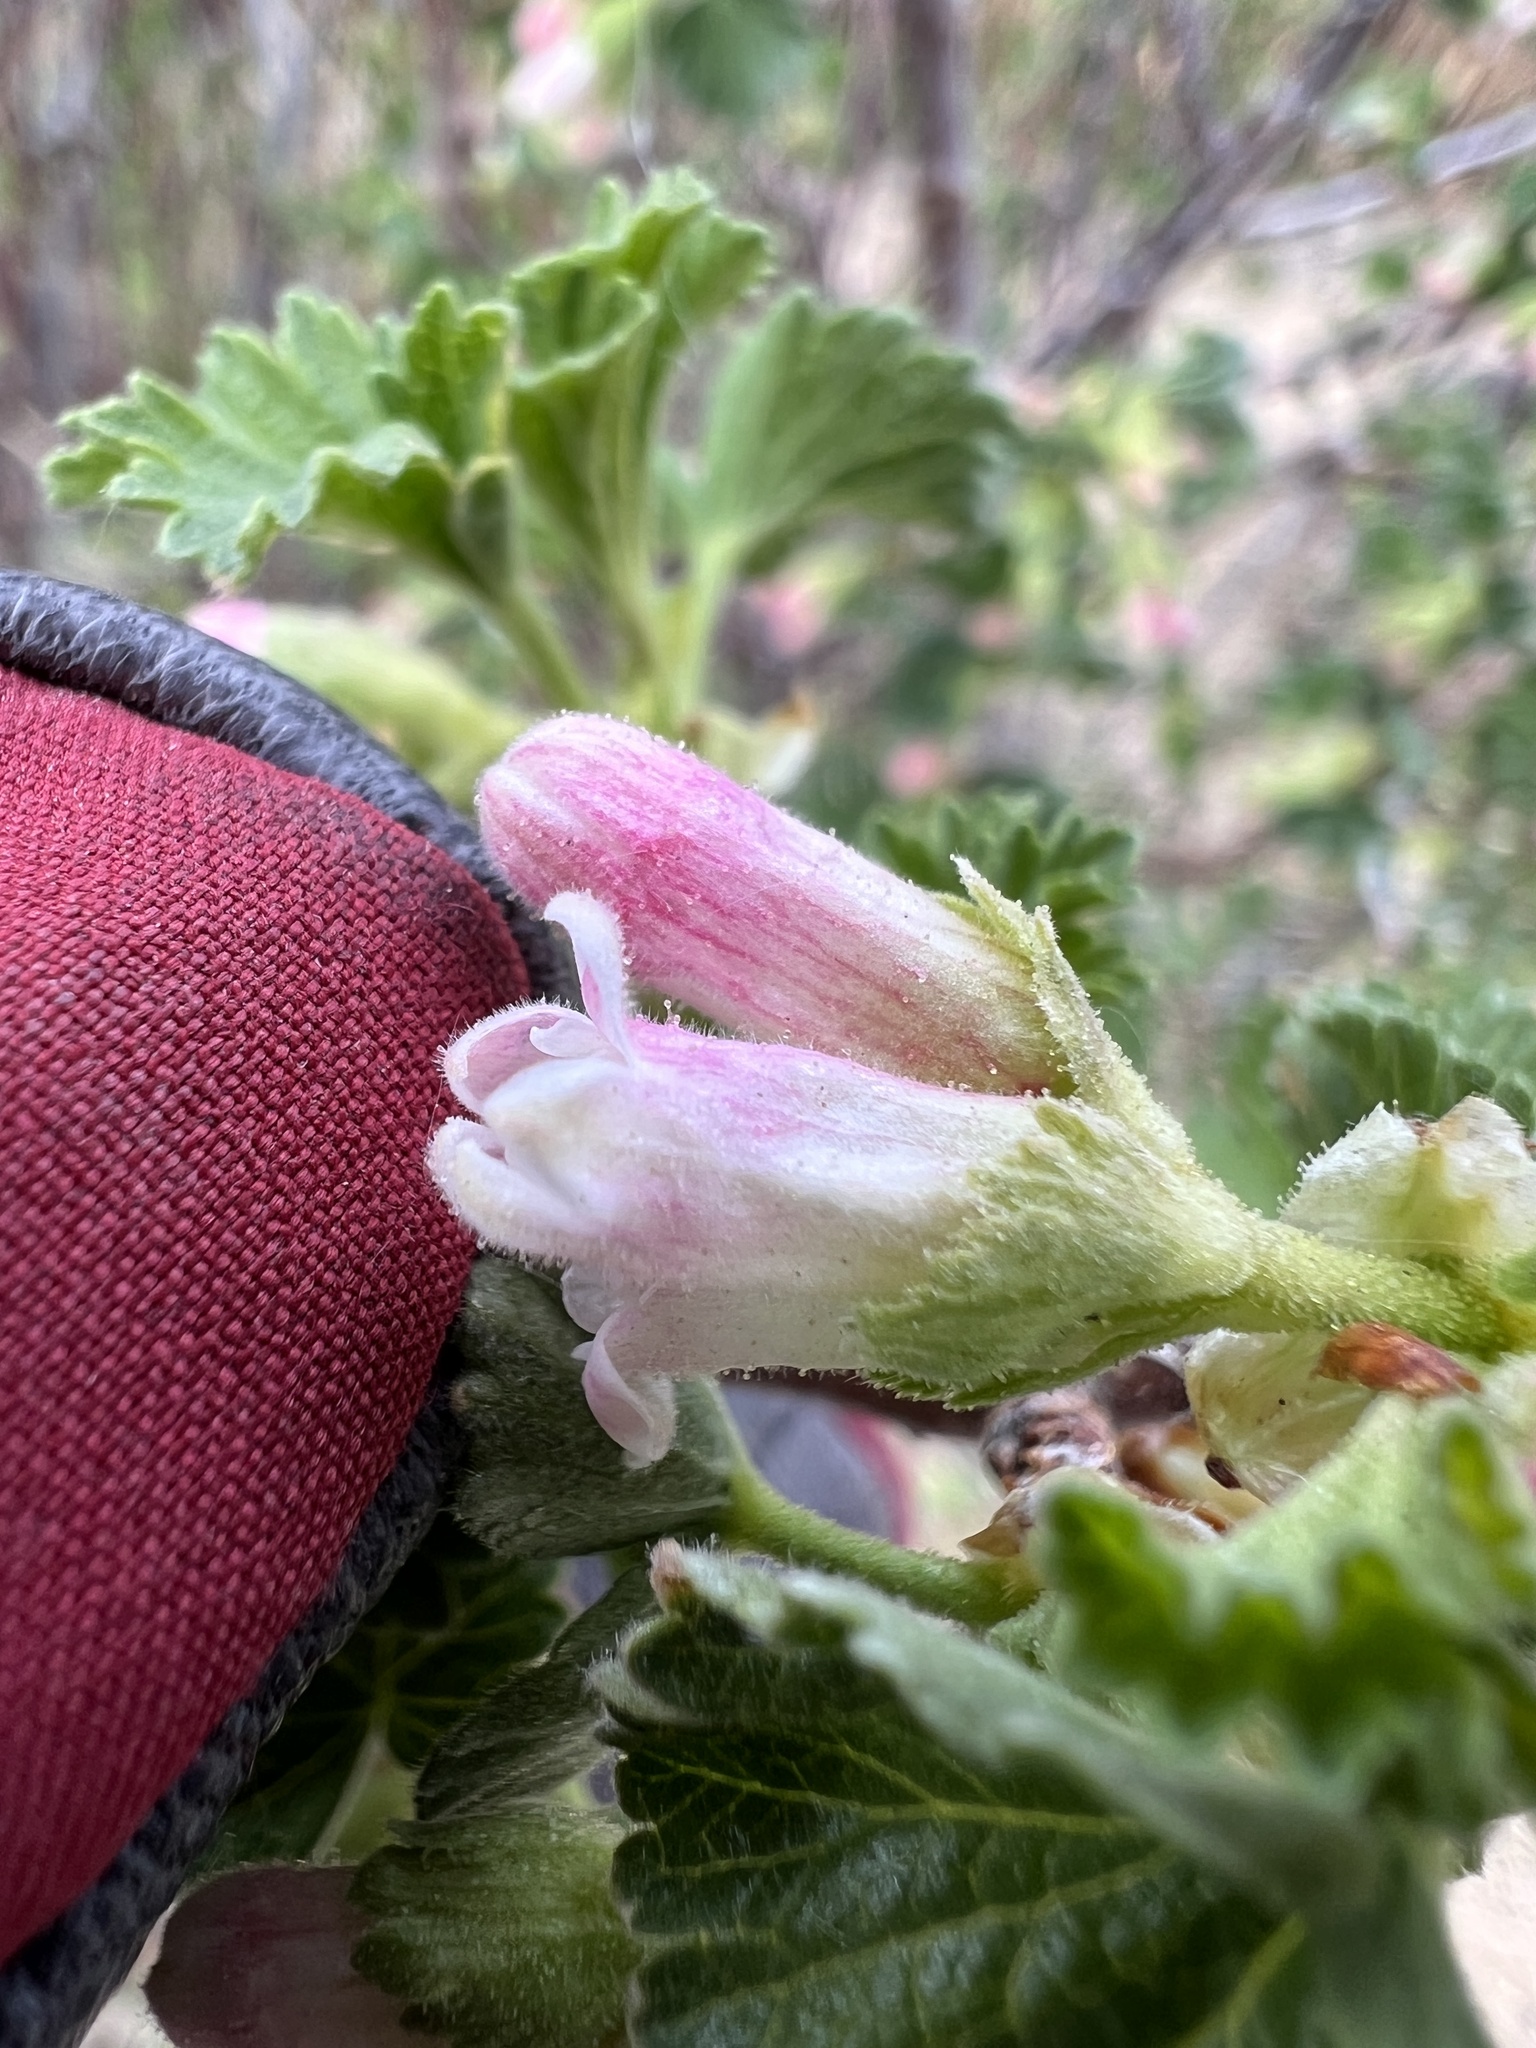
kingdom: Plantae
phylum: Tracheophyta
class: Magnoliopsida
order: Saxifragales
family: Grossulariaceae
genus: Ribes
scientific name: Ribes cereum
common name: Wax currant
